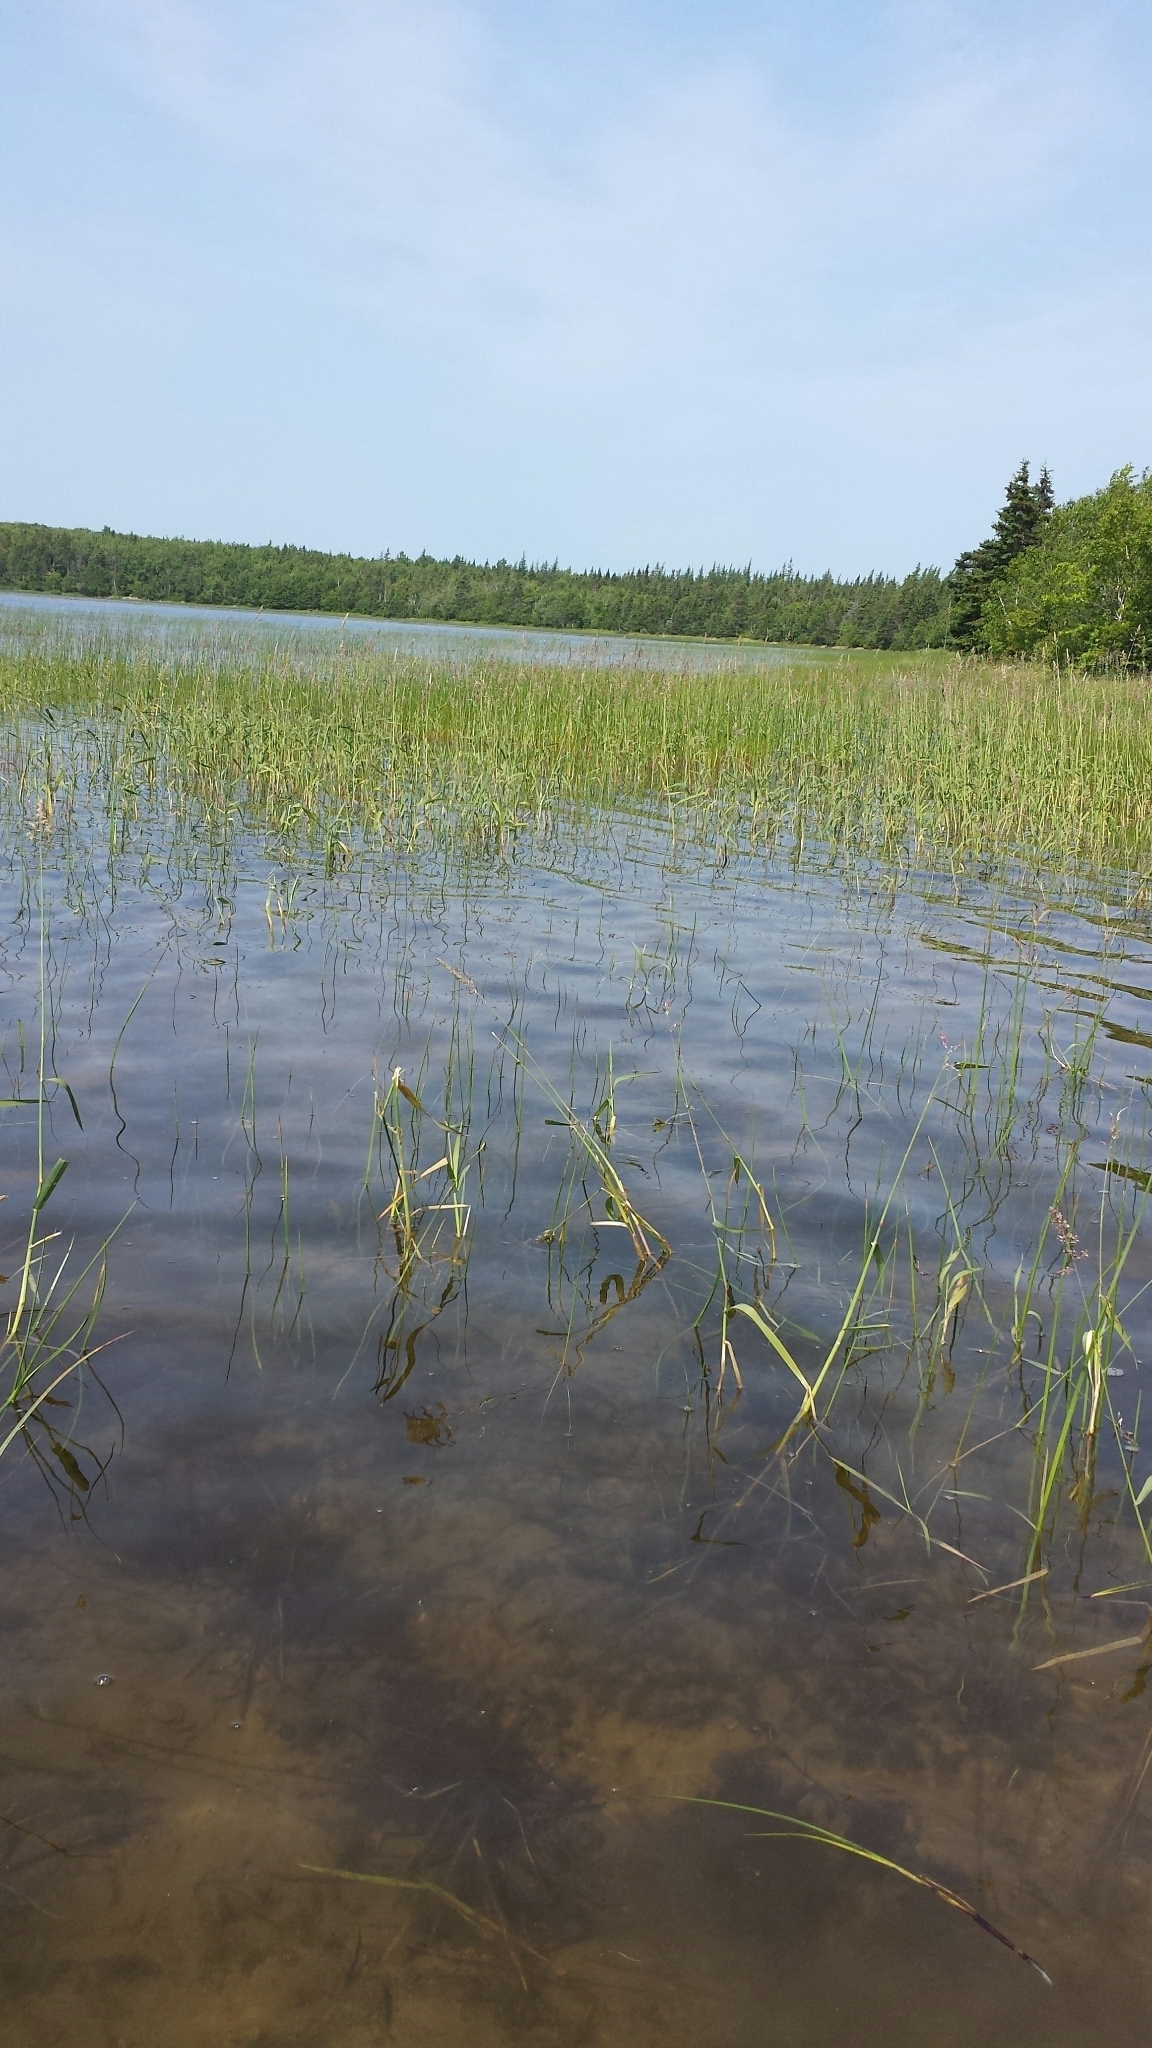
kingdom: Plantae
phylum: Tracheophyta
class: Liliopsida
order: Poales
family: Poaceae
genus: Phalaris
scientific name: Phalaris arundinacea
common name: Reed canary-grass
